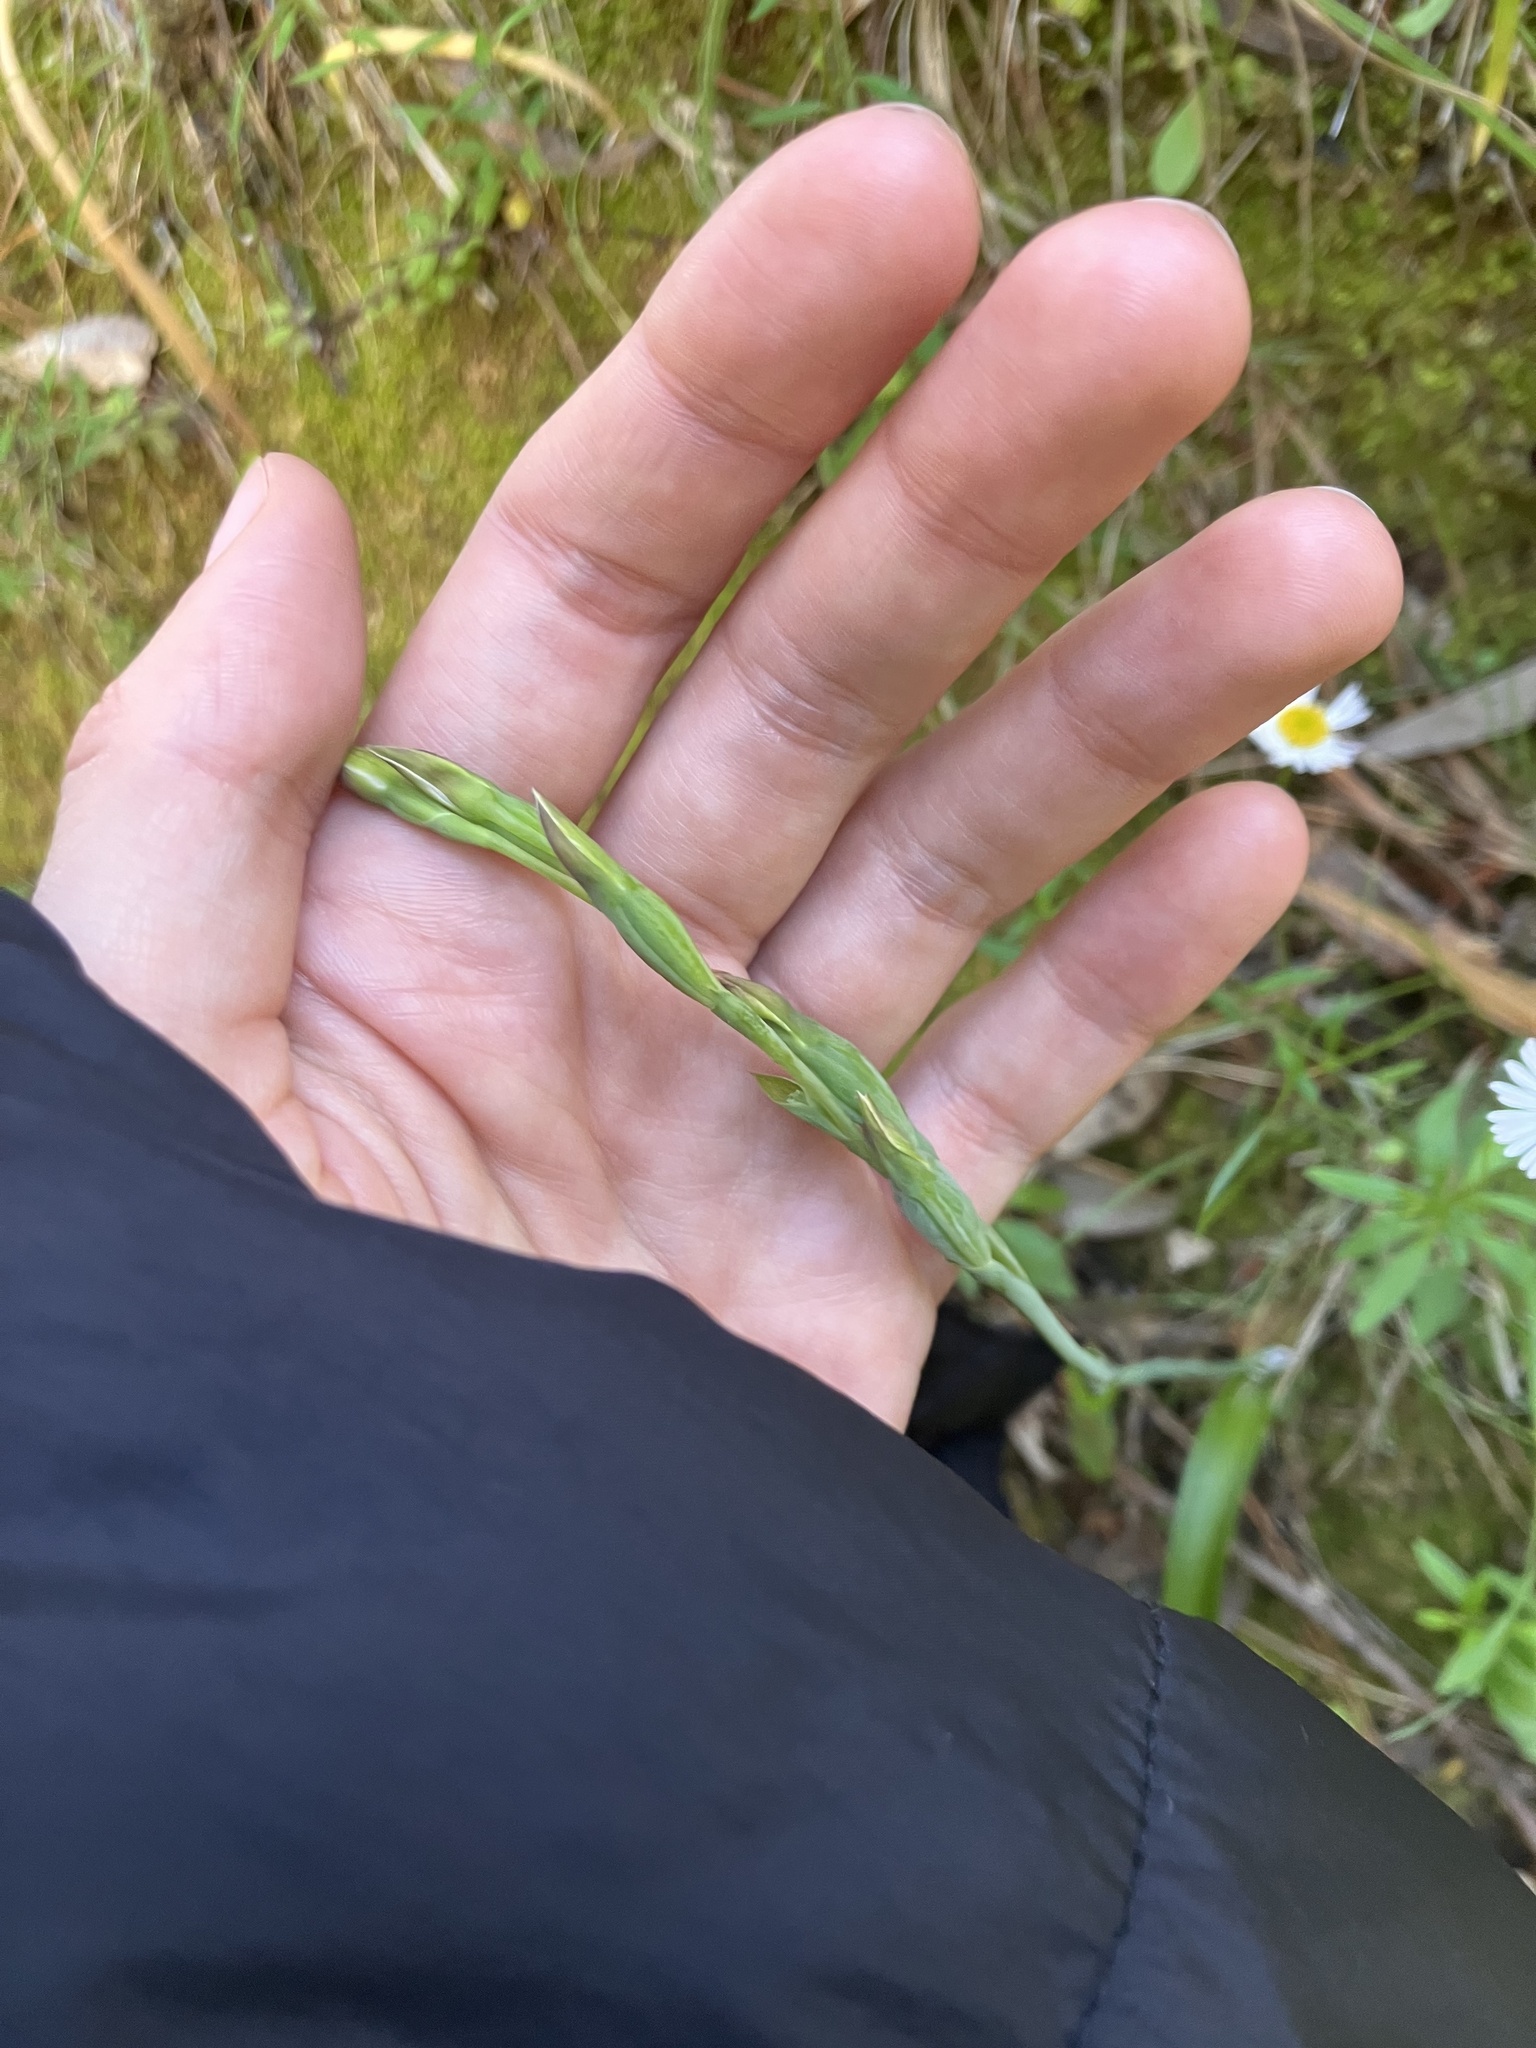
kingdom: Plantae
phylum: Tracheophyta
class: Liliopsida
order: Asparagales
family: Orchidaceae
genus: Thelymitra
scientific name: Thelymitra longifolia
